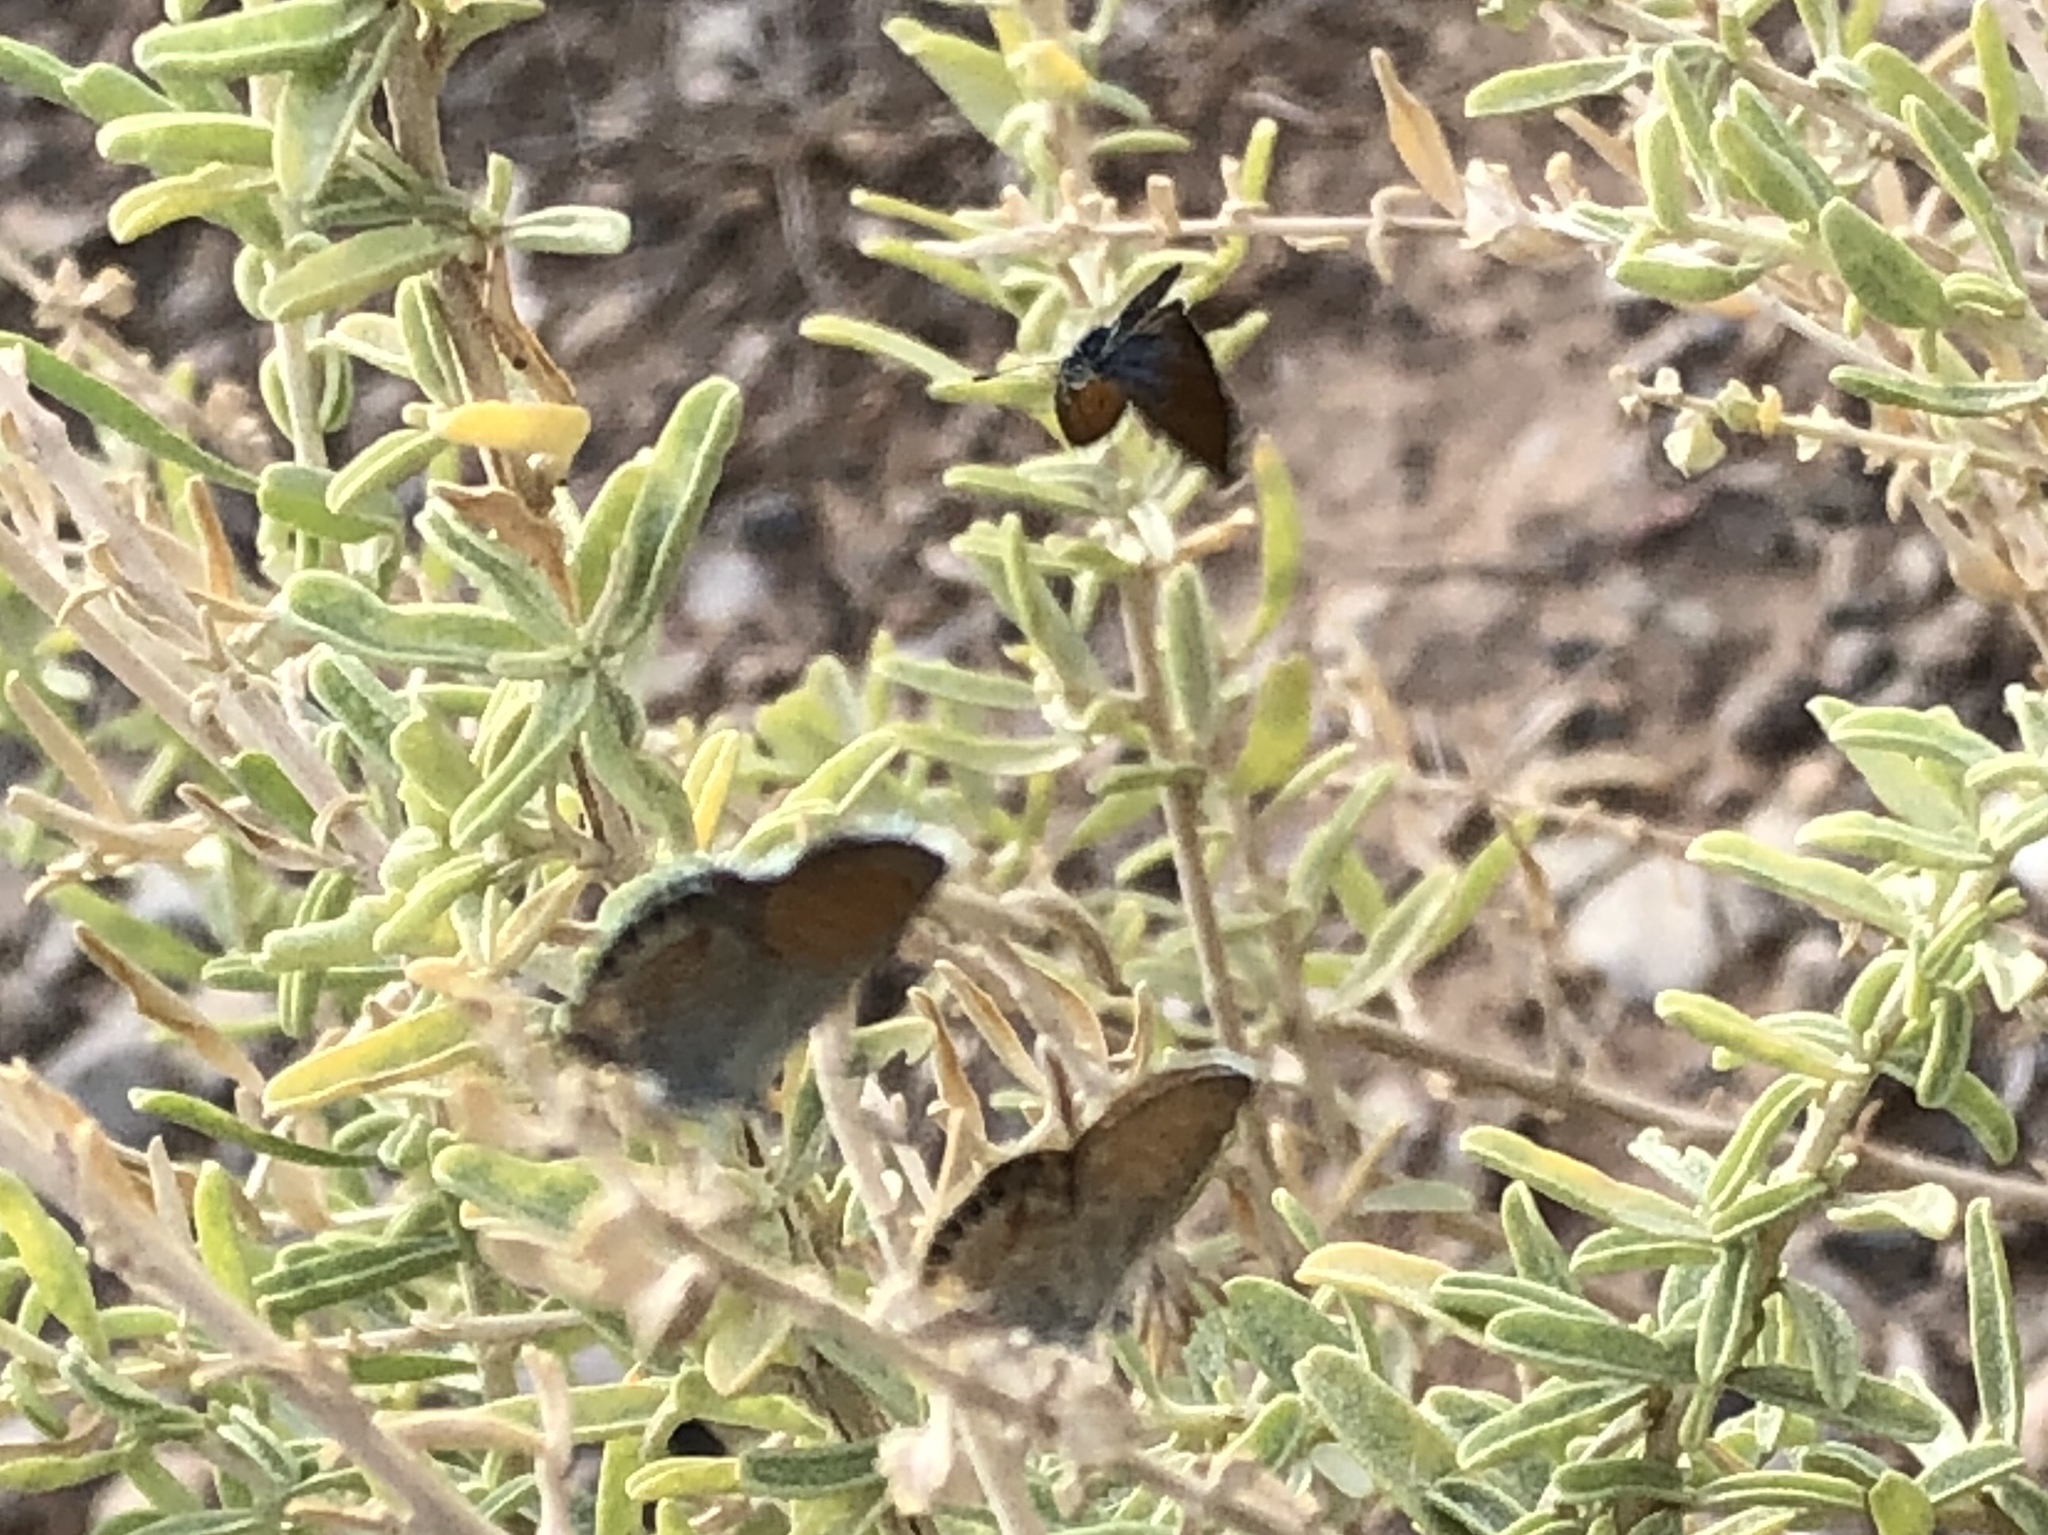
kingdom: Animalia
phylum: Arthropoda
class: Insecta
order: Lepidoptera
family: Lycaenidae
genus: Brephidium
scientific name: Brephidium exilis
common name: Pygmy blue
